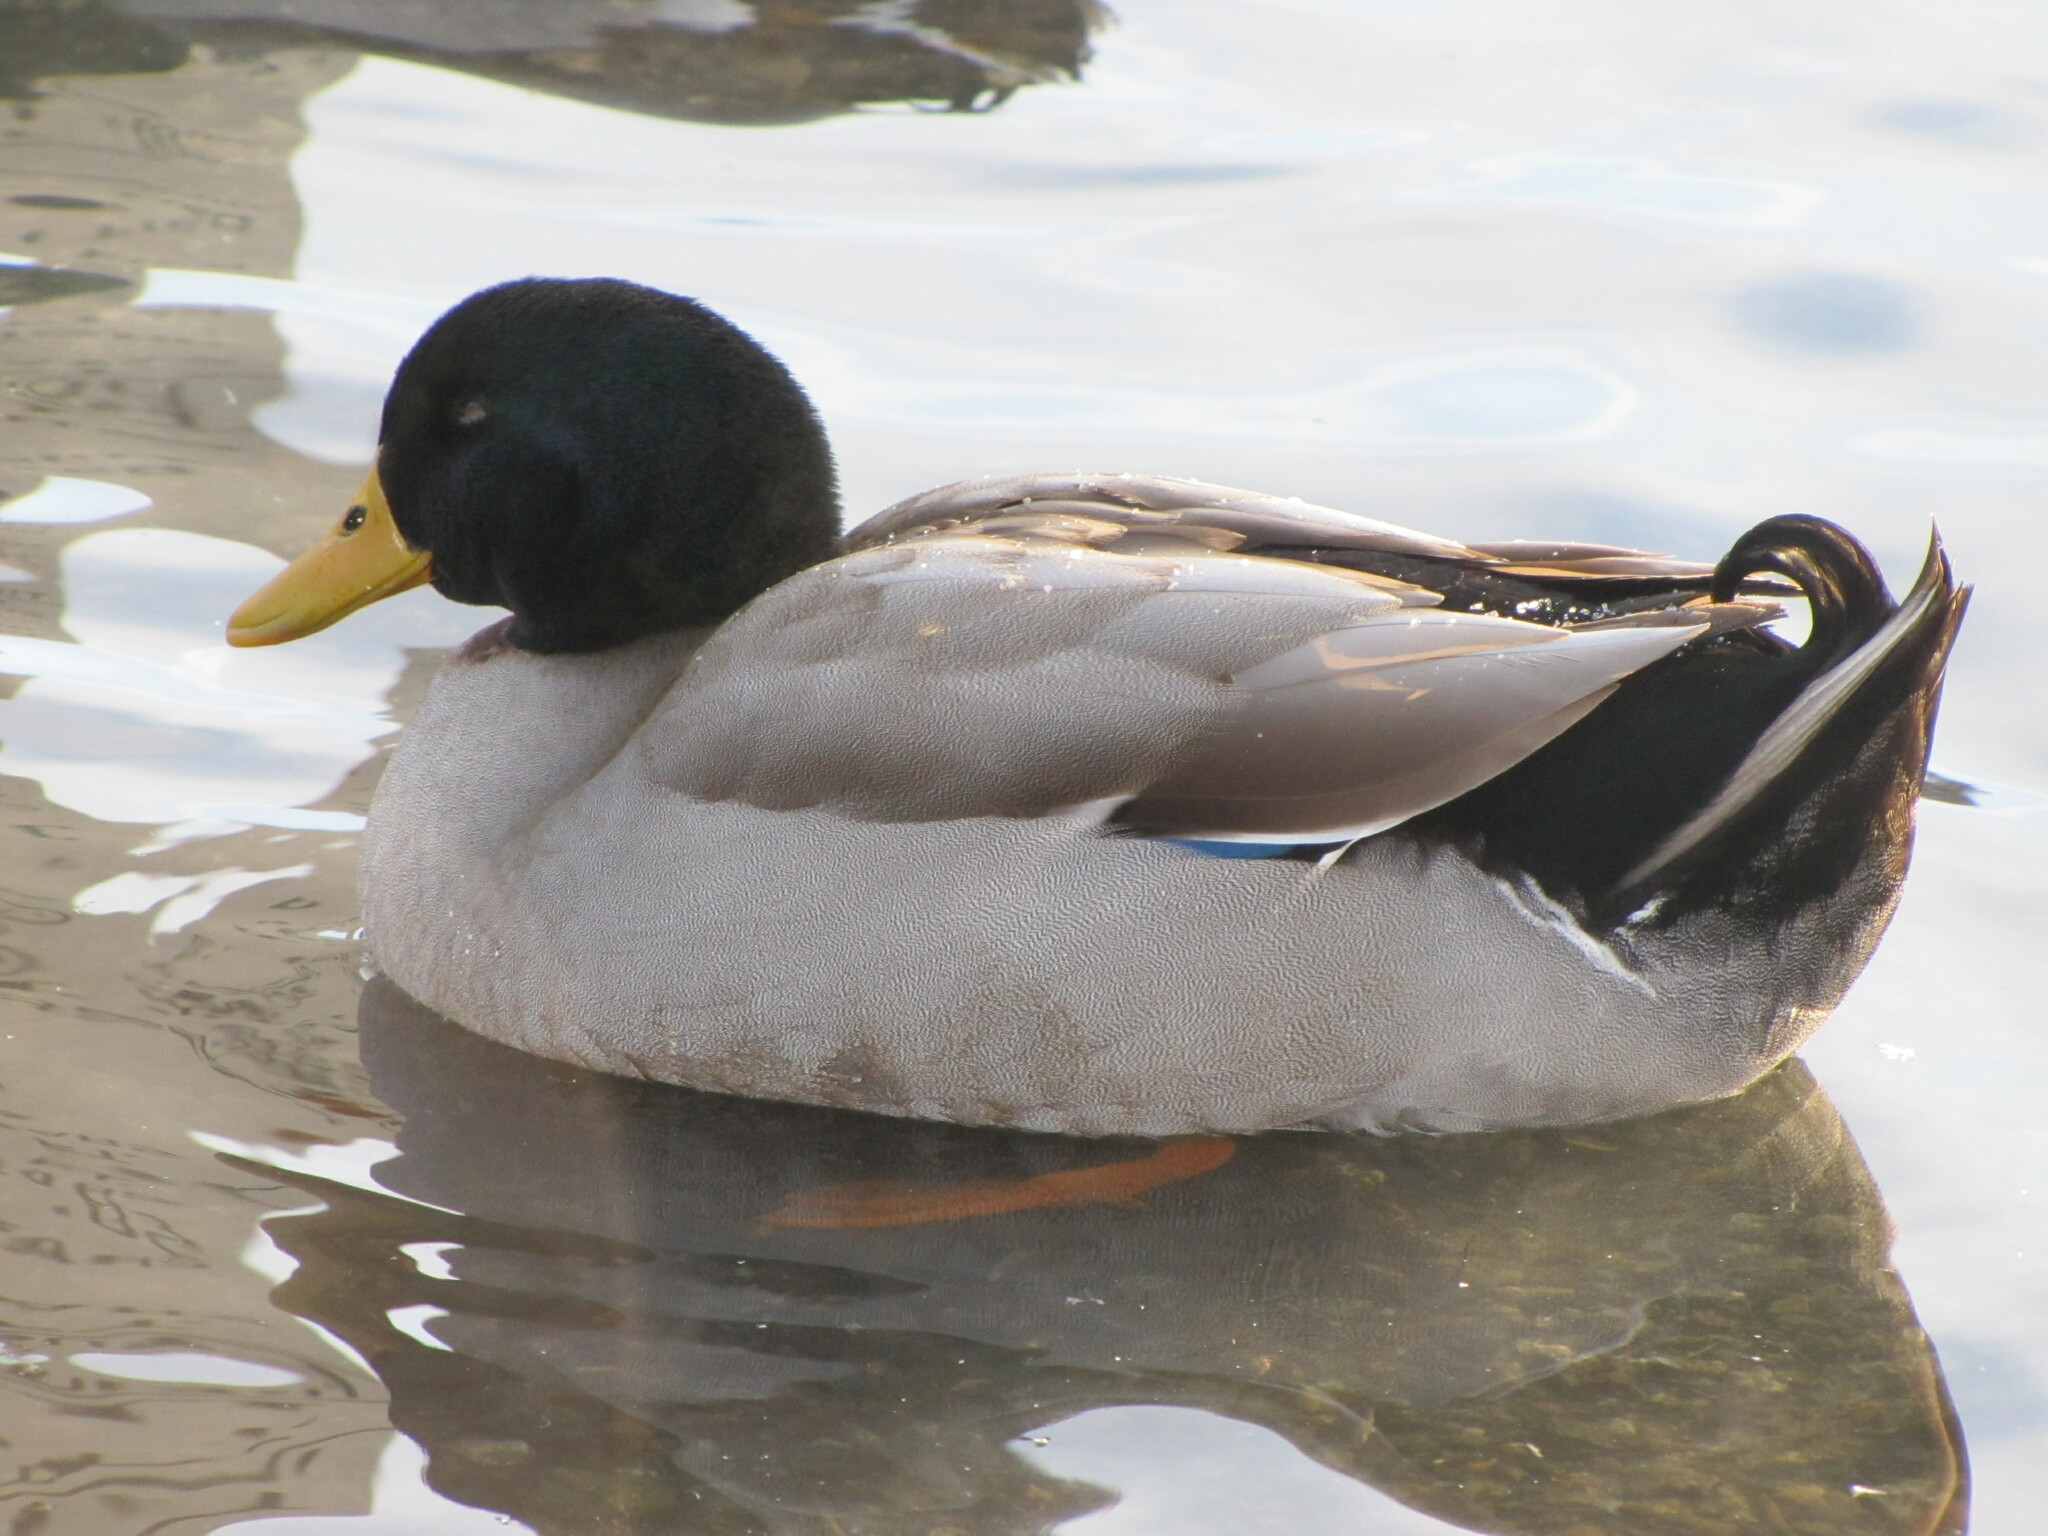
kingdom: Animalia
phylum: Chordata
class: Aves
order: Anseriformes
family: Anatidae
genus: Anas
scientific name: Anas platyrhynchos
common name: Mallard
